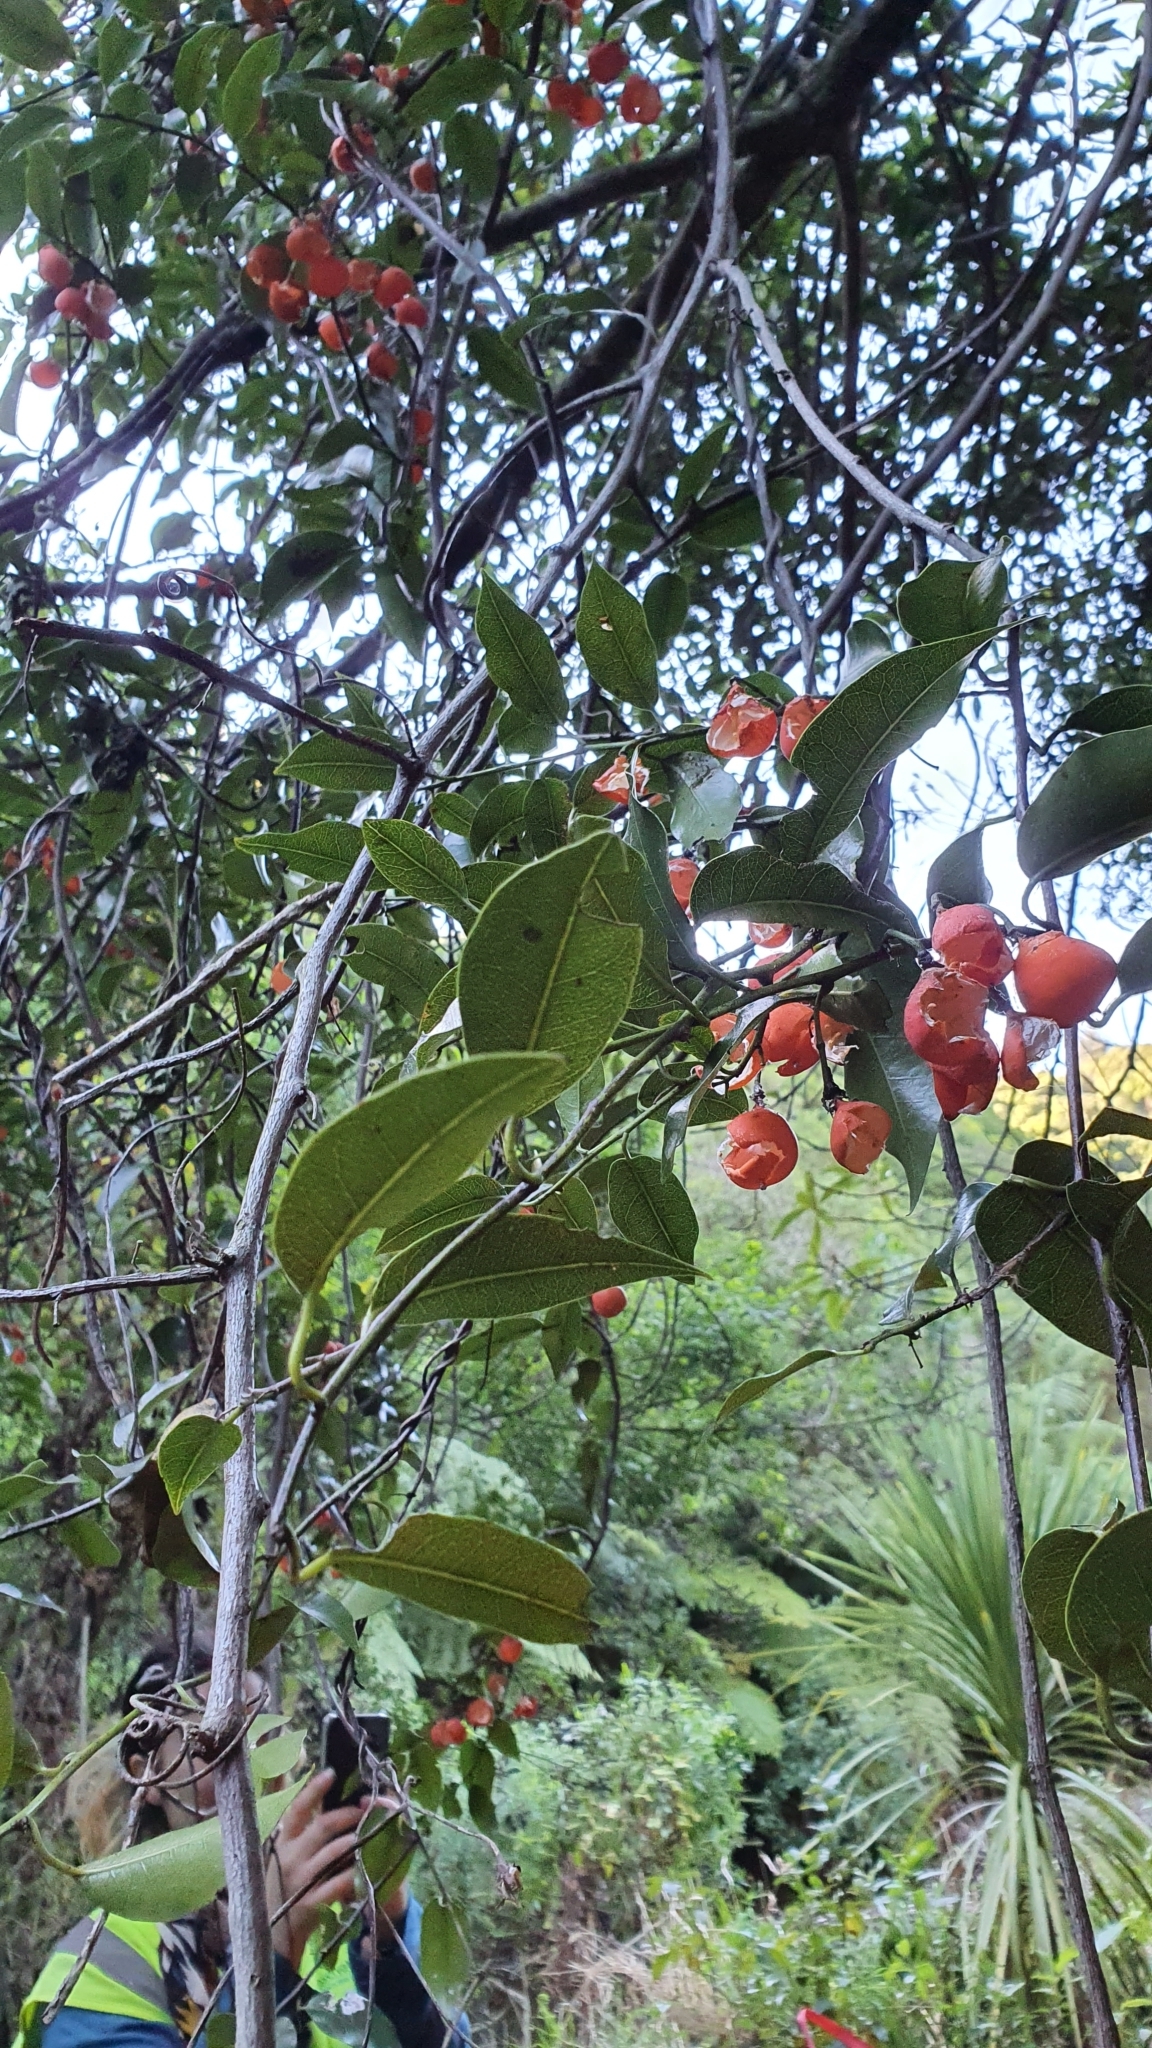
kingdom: Plantae
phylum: Tracheophyta
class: Magnoliopsida
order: Malpighiales
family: Passifloraceae
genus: Passiflora
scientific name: Passiflora tetrandra
